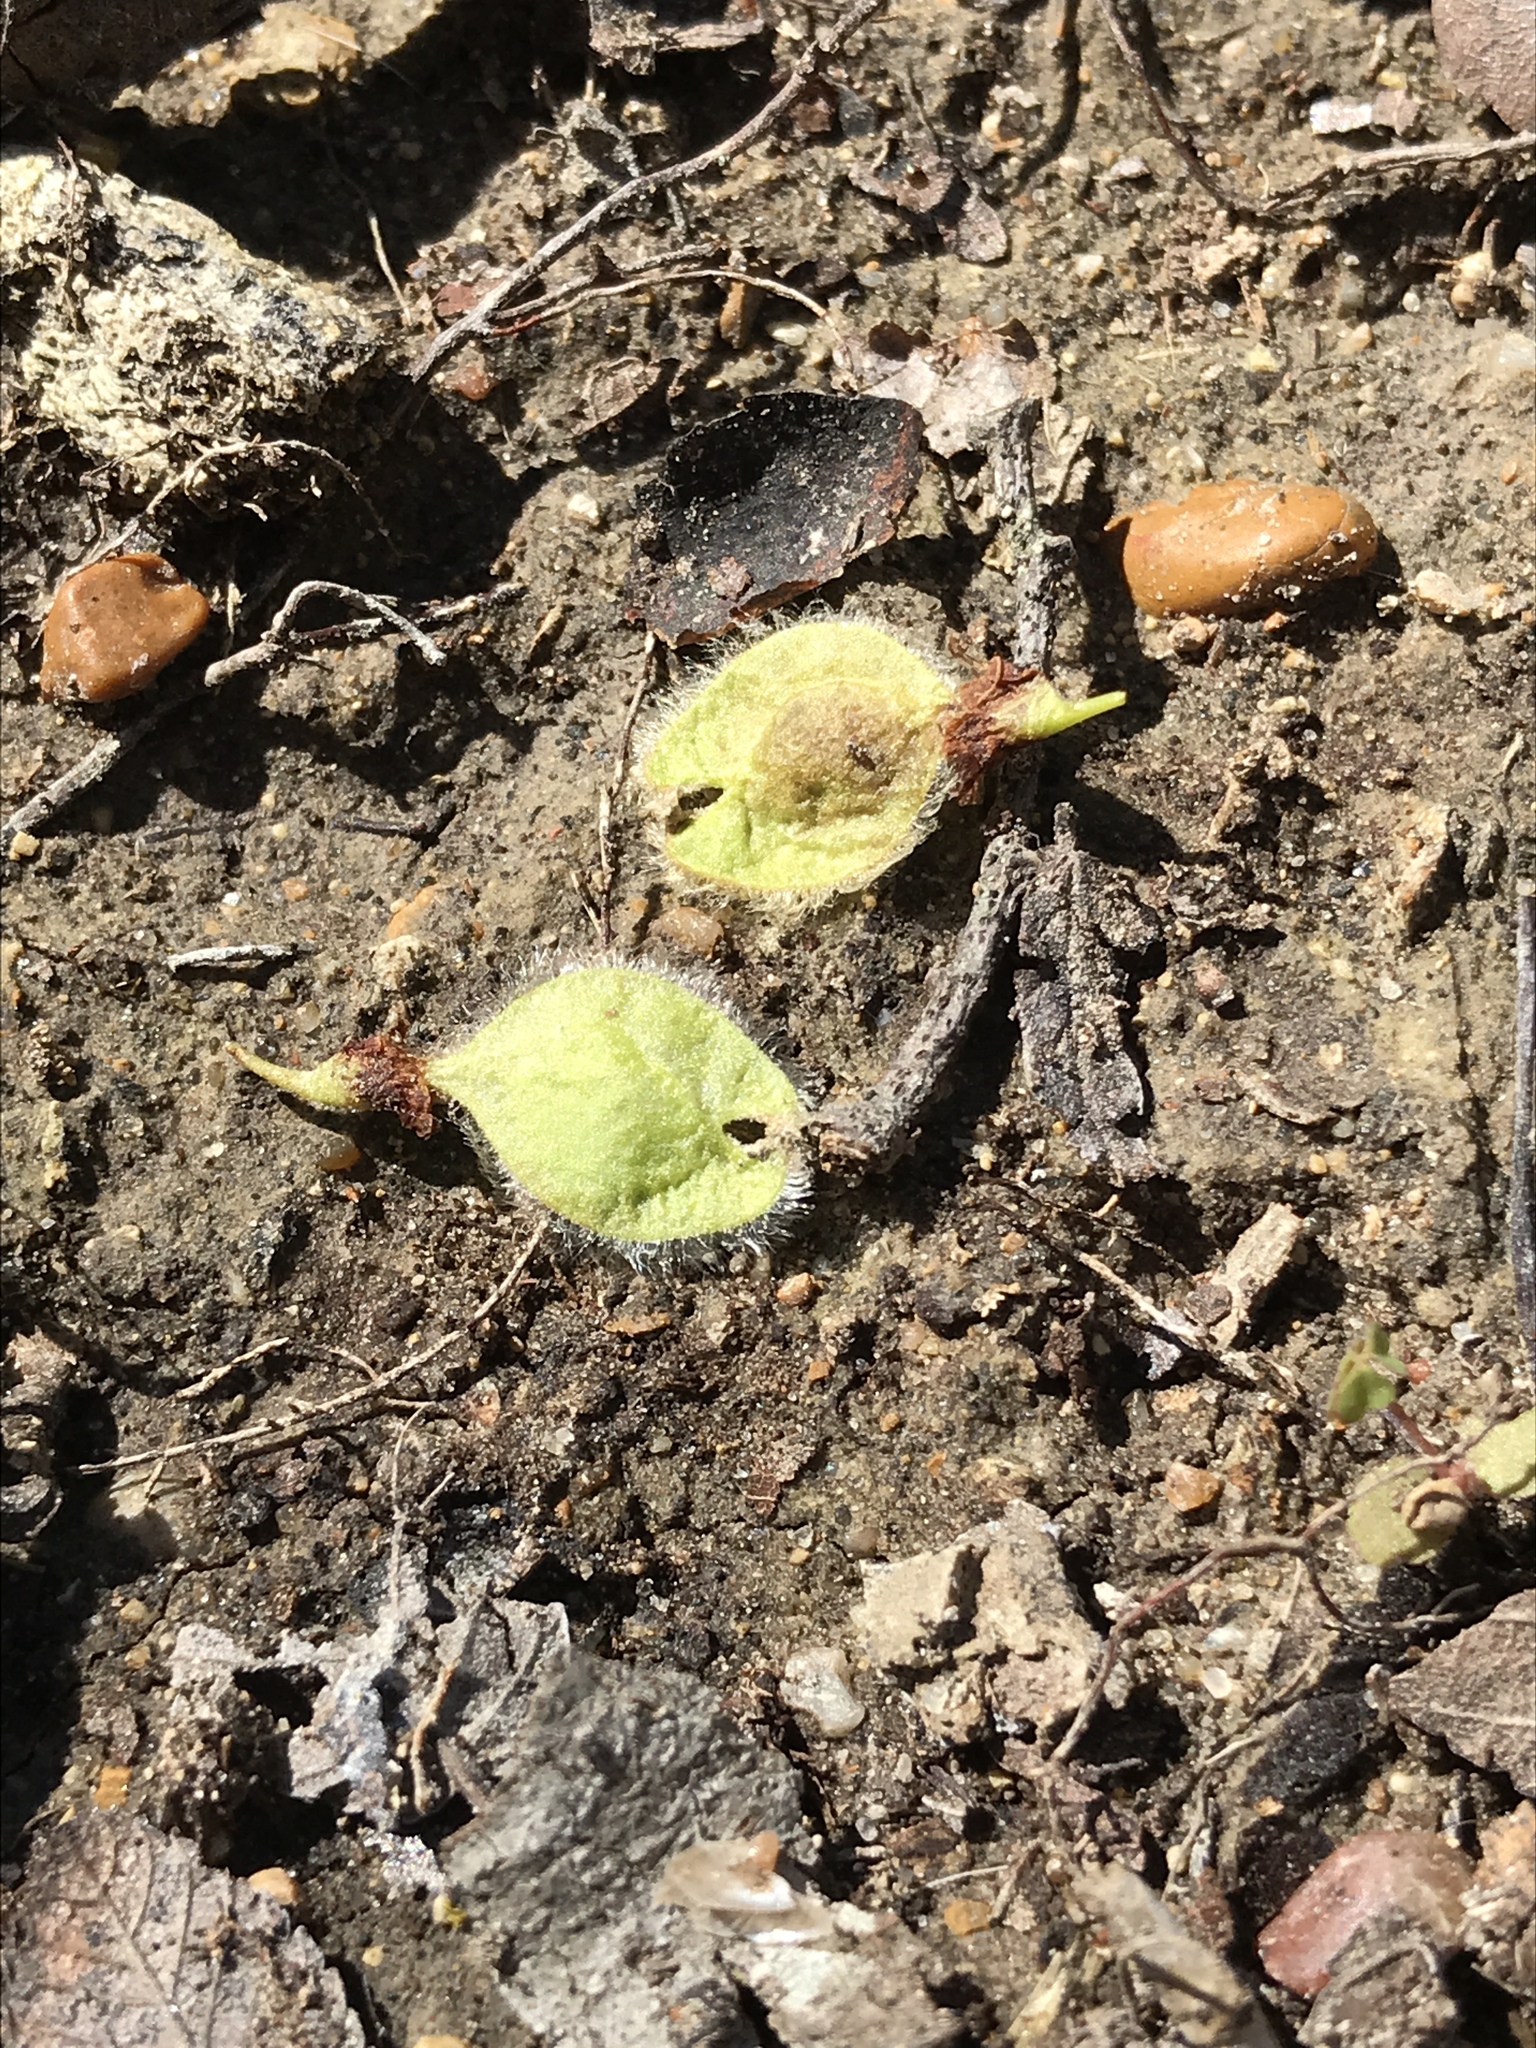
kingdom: Plantae
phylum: Tracheophyta
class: Magnoliopsida
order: Rosales
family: Ulmaceae
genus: Ulmus
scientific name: Ulmus americana
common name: American elm
